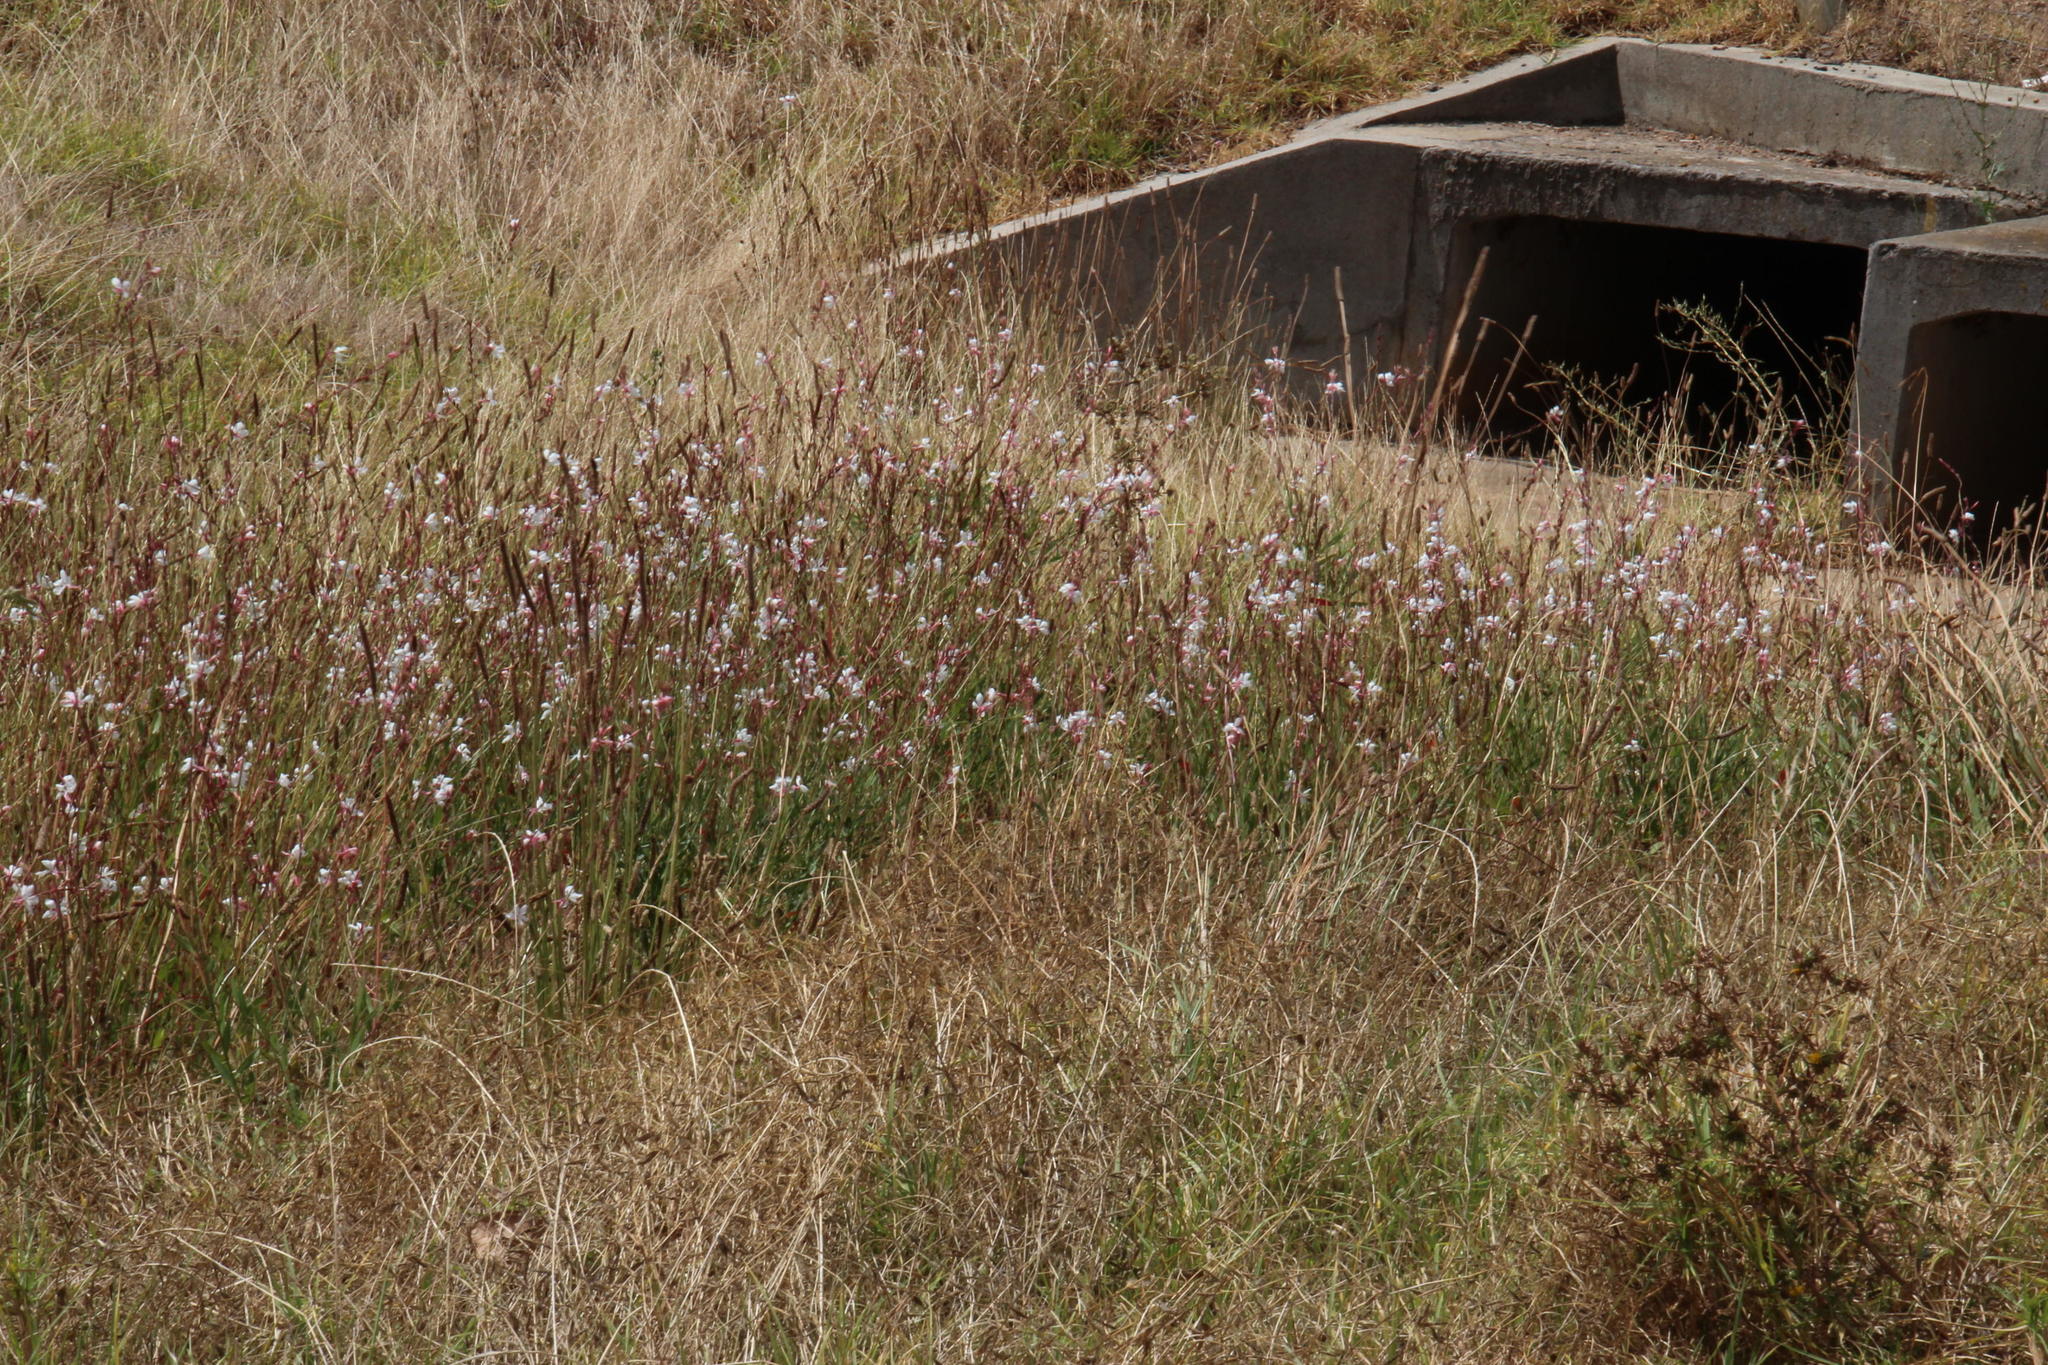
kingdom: Plantae
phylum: Tracheophyta
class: Magnoliopsida
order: Myrtales
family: Onagraceae
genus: Oenothera
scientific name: Oenothera lindheimeri
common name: Lindheimer's beeblossom
